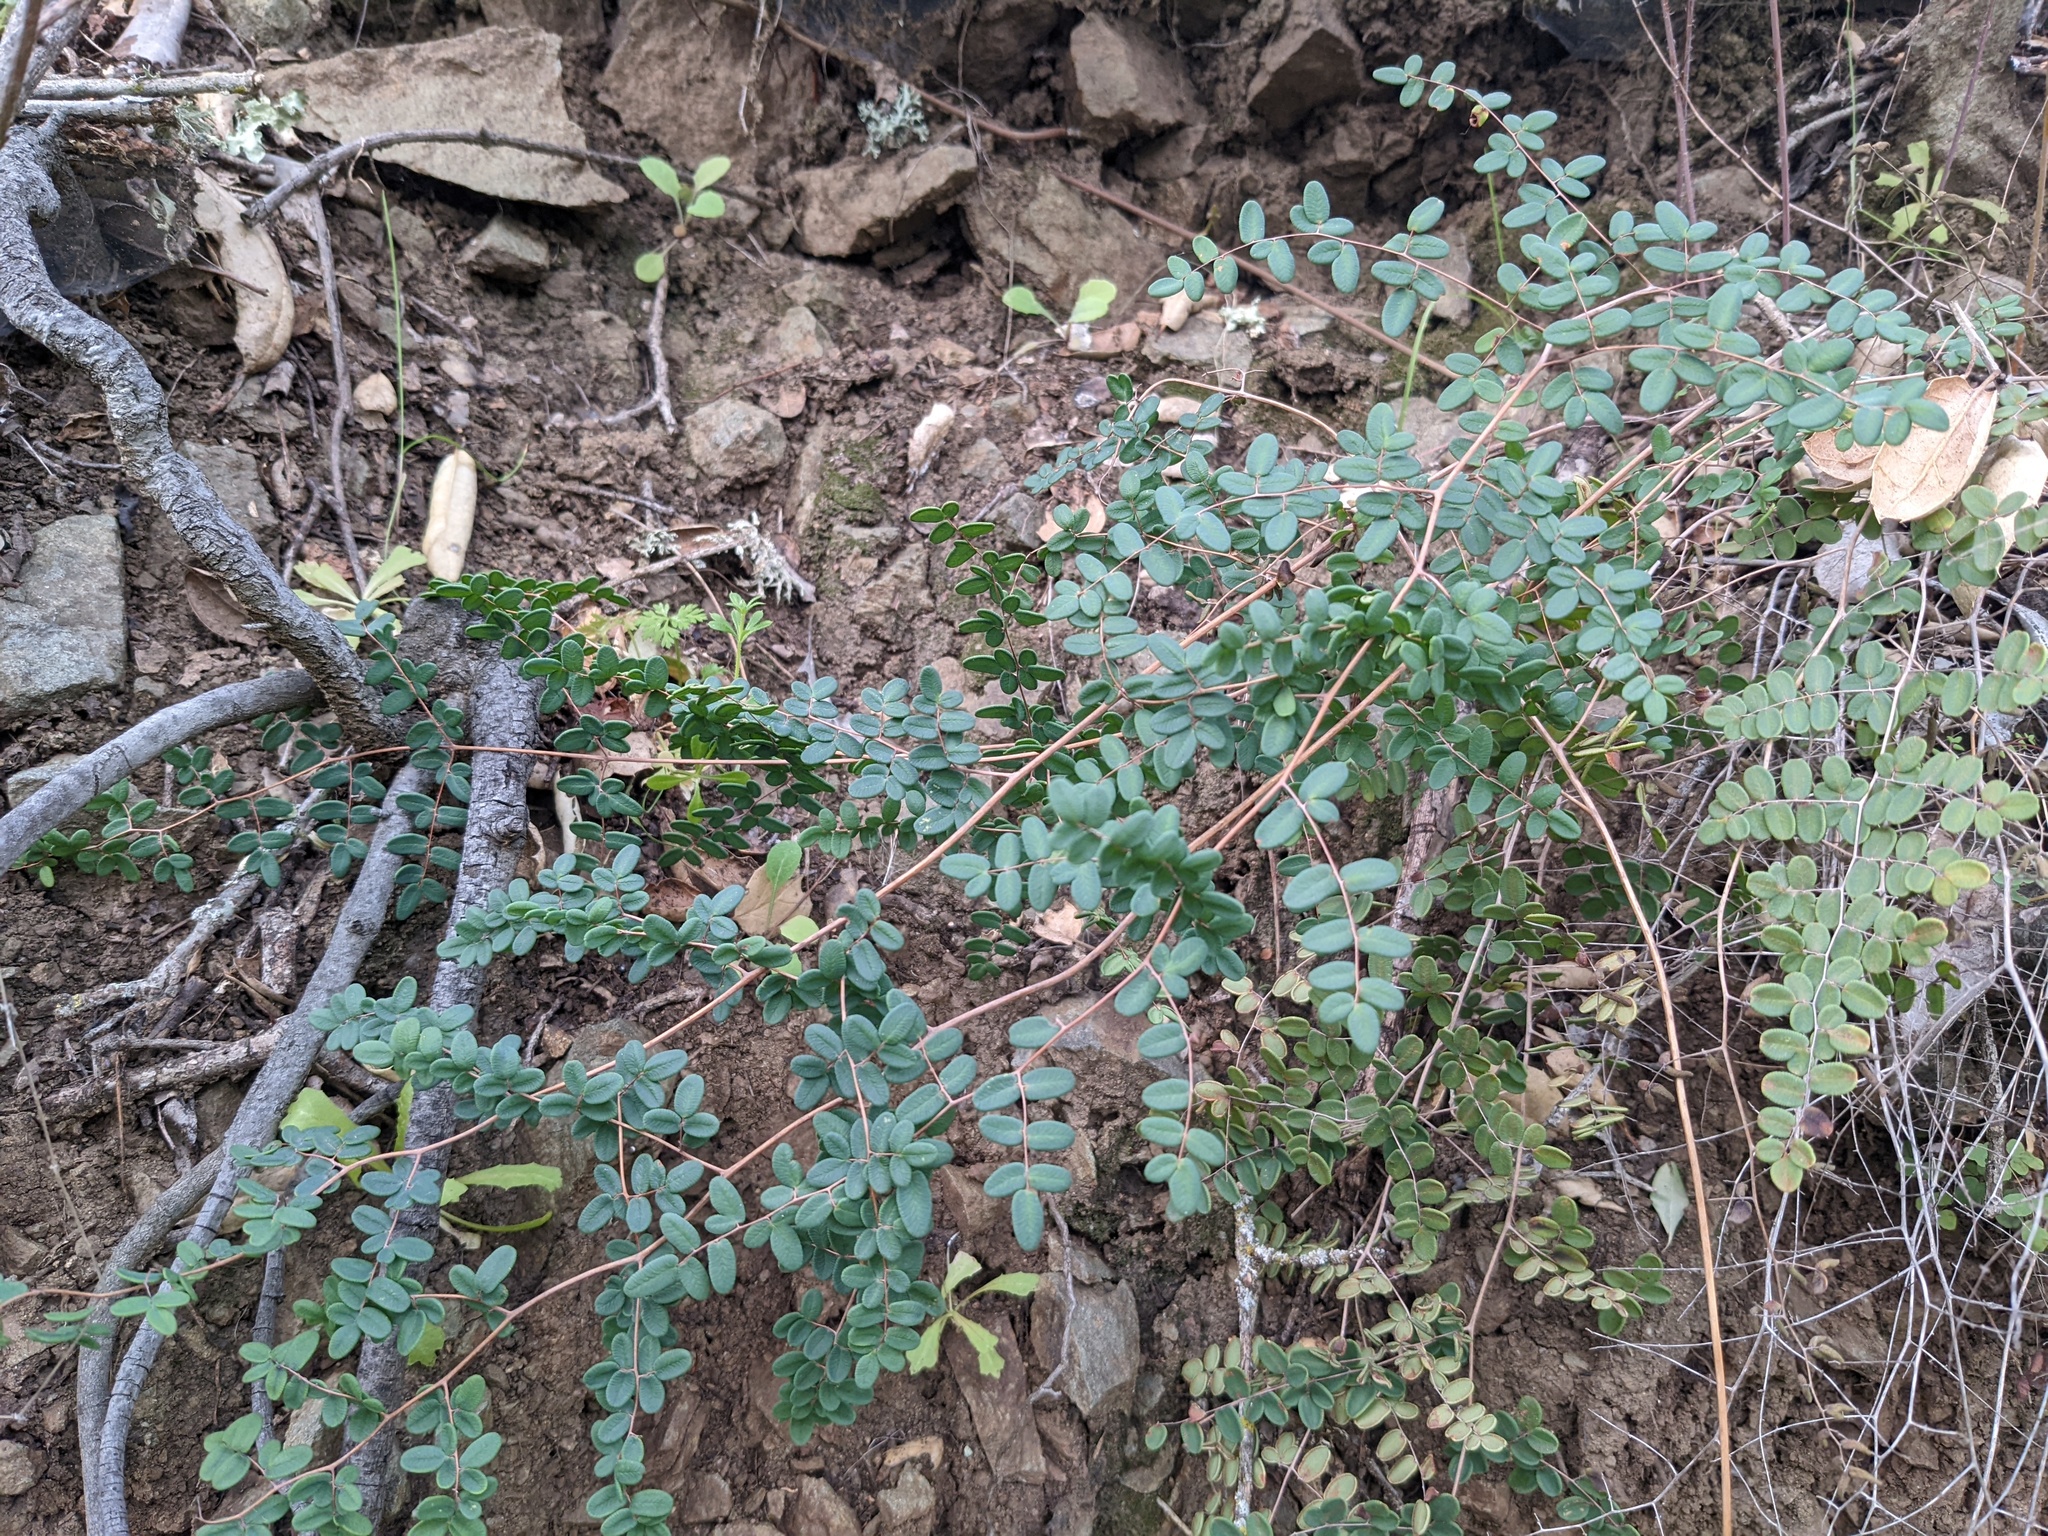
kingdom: Plantae
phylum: Tracheophyta
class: Polypodiopsida
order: Polypodiales
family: Pteridaceae
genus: Pellaea
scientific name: Pellaea andromedifolia
